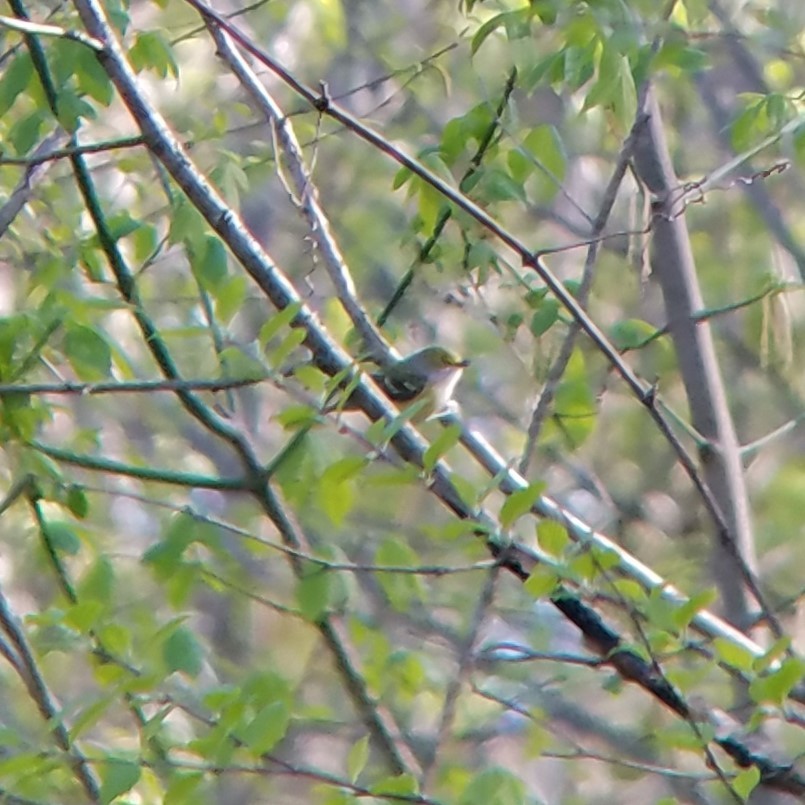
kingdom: Animalia
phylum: Chordata
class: Aves
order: Passeriformes
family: Vireonidae
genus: Vireo
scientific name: Vireo griseus
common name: White-eyed vireo
